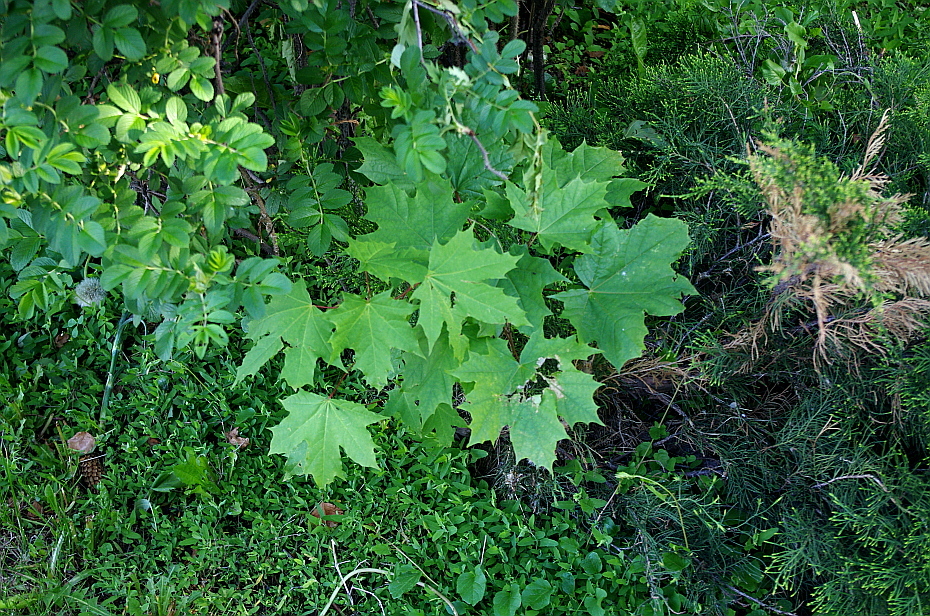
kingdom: Plantae
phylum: Tracheophyta
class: Magnoliopsida
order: Sapindales
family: Sapindaceae
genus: Acer
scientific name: Acer platanoides
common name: Norway maple
